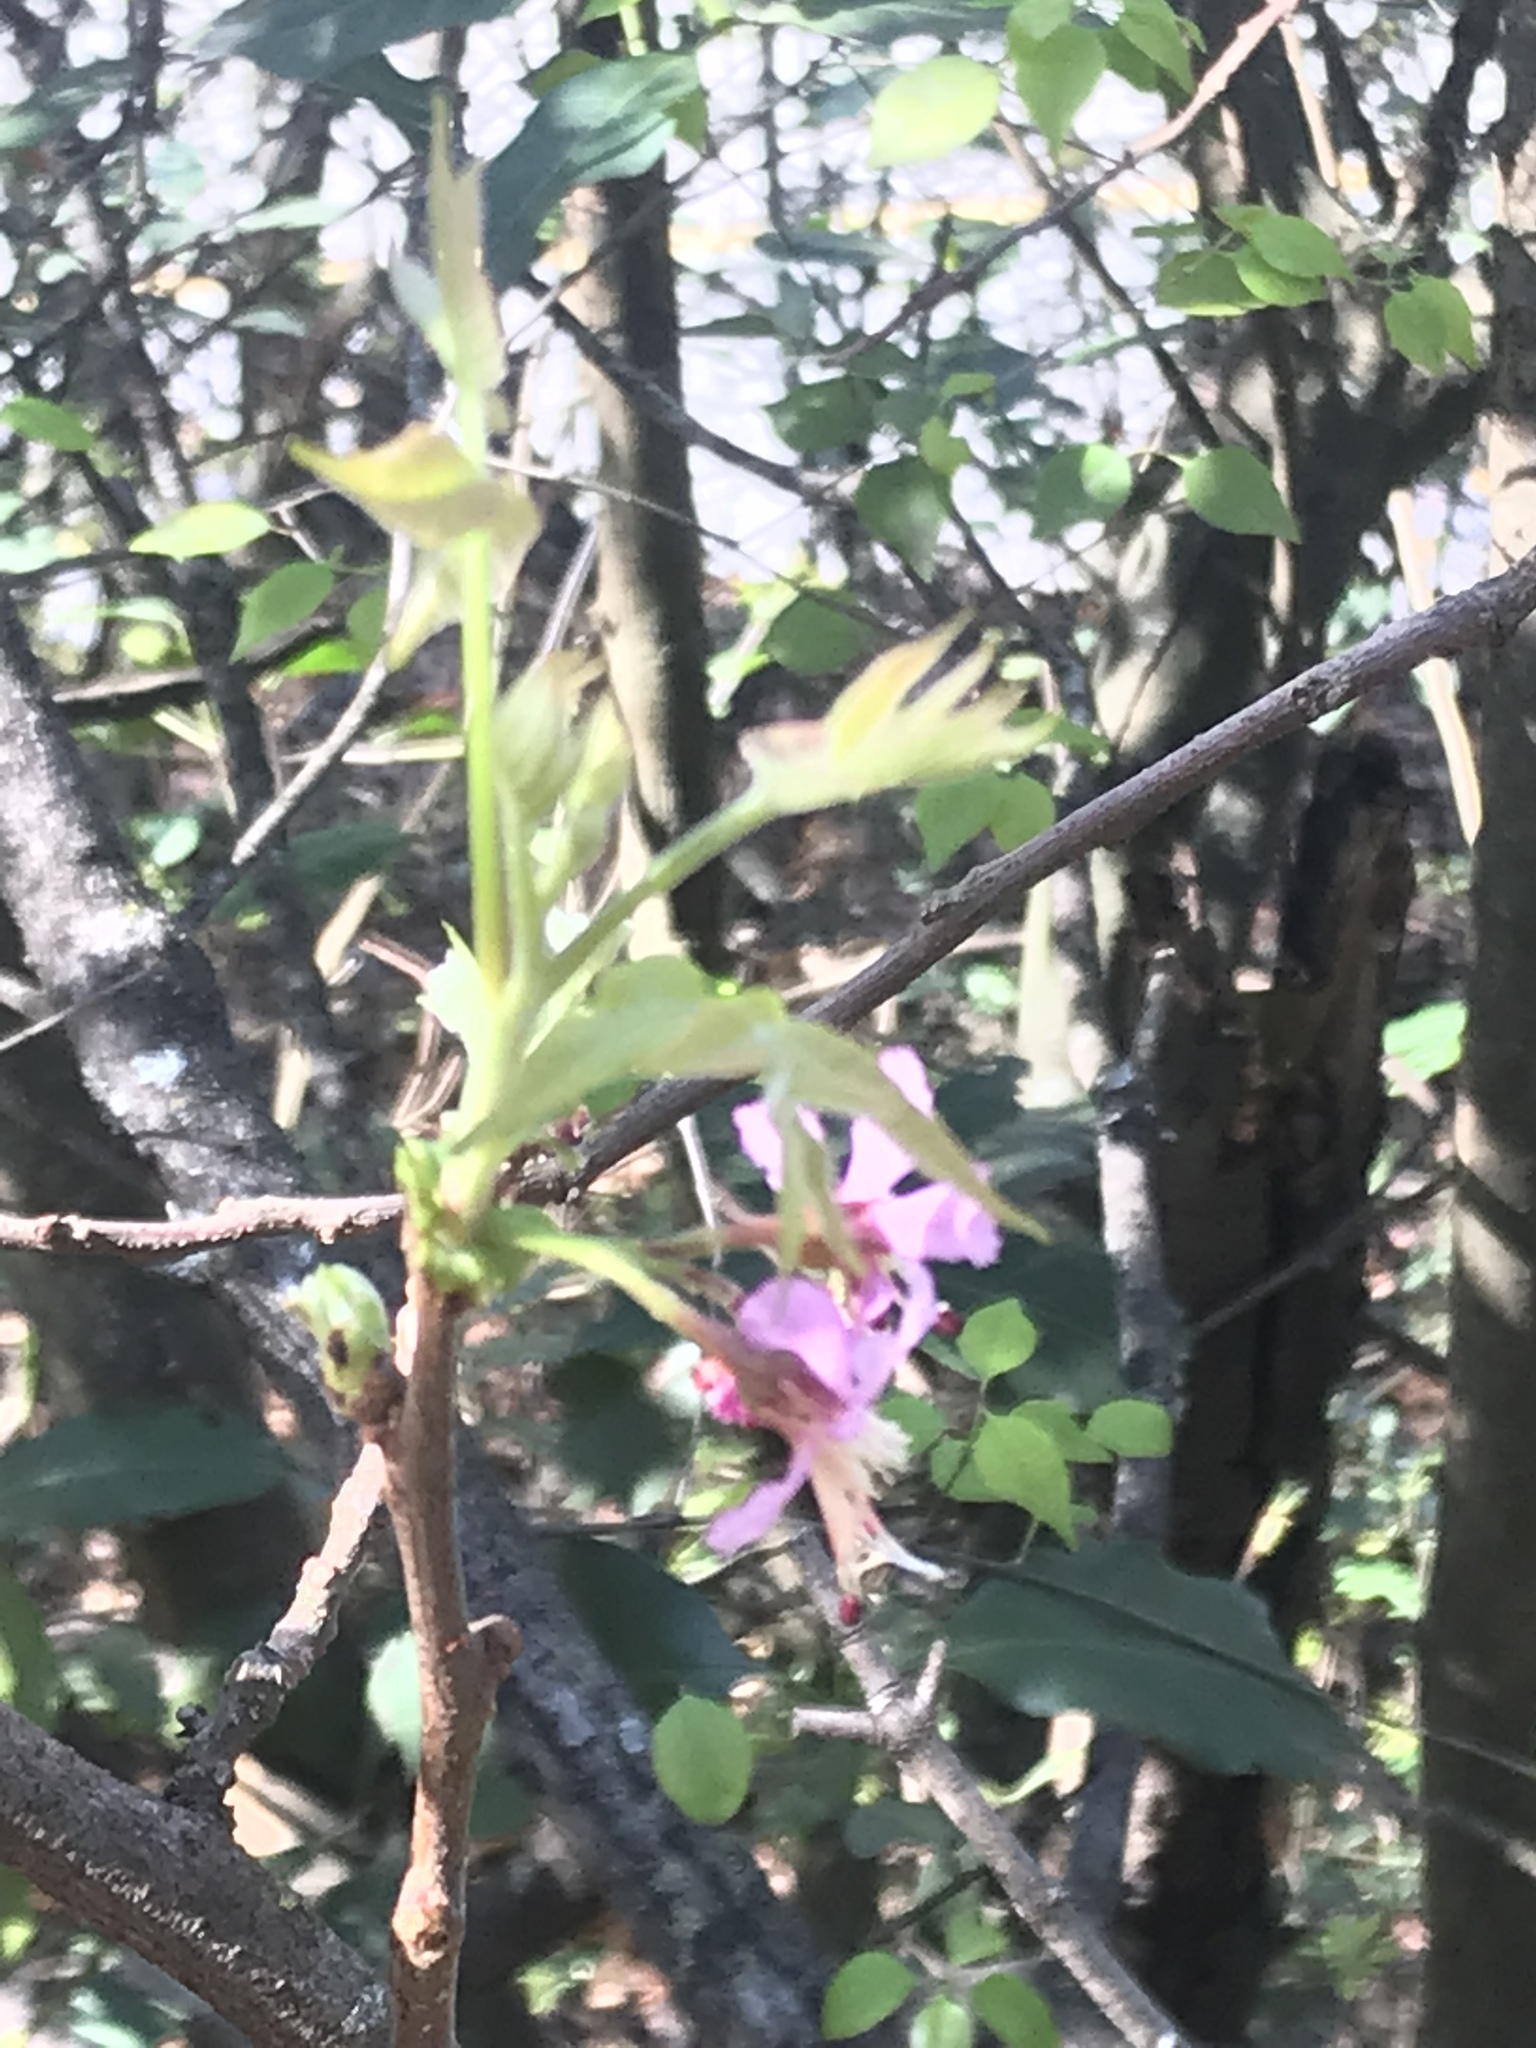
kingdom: Plantae
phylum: Tracheophyta
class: Magnoliopsida
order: Sapindales
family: Sapindaceae
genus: Ungnadia
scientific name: Ungnadia speciosa
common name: Texas-buckeye
